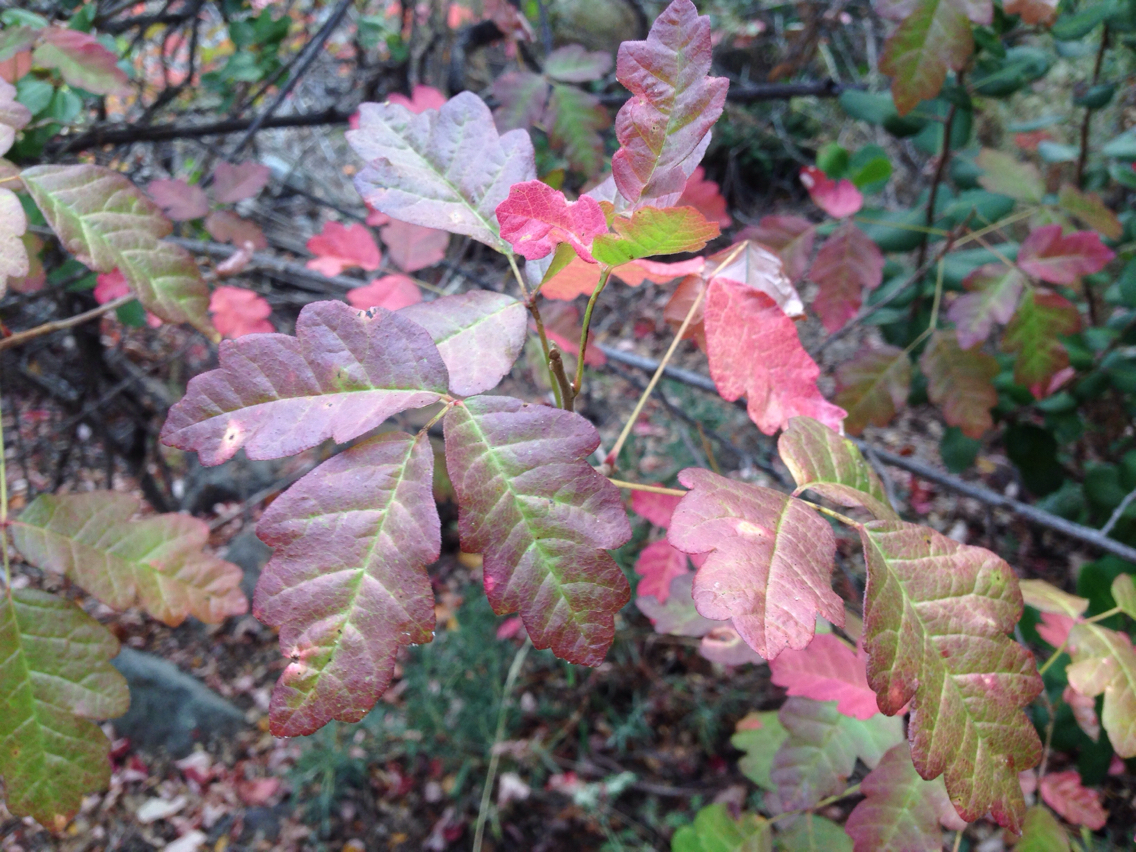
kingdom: Plantae
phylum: Tracheophyta
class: Magnoliopsida
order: Sapindales
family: Anacardiaceae
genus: Toxicodendron
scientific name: Toxicodendron diversilobum
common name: Pacific poison-oak
